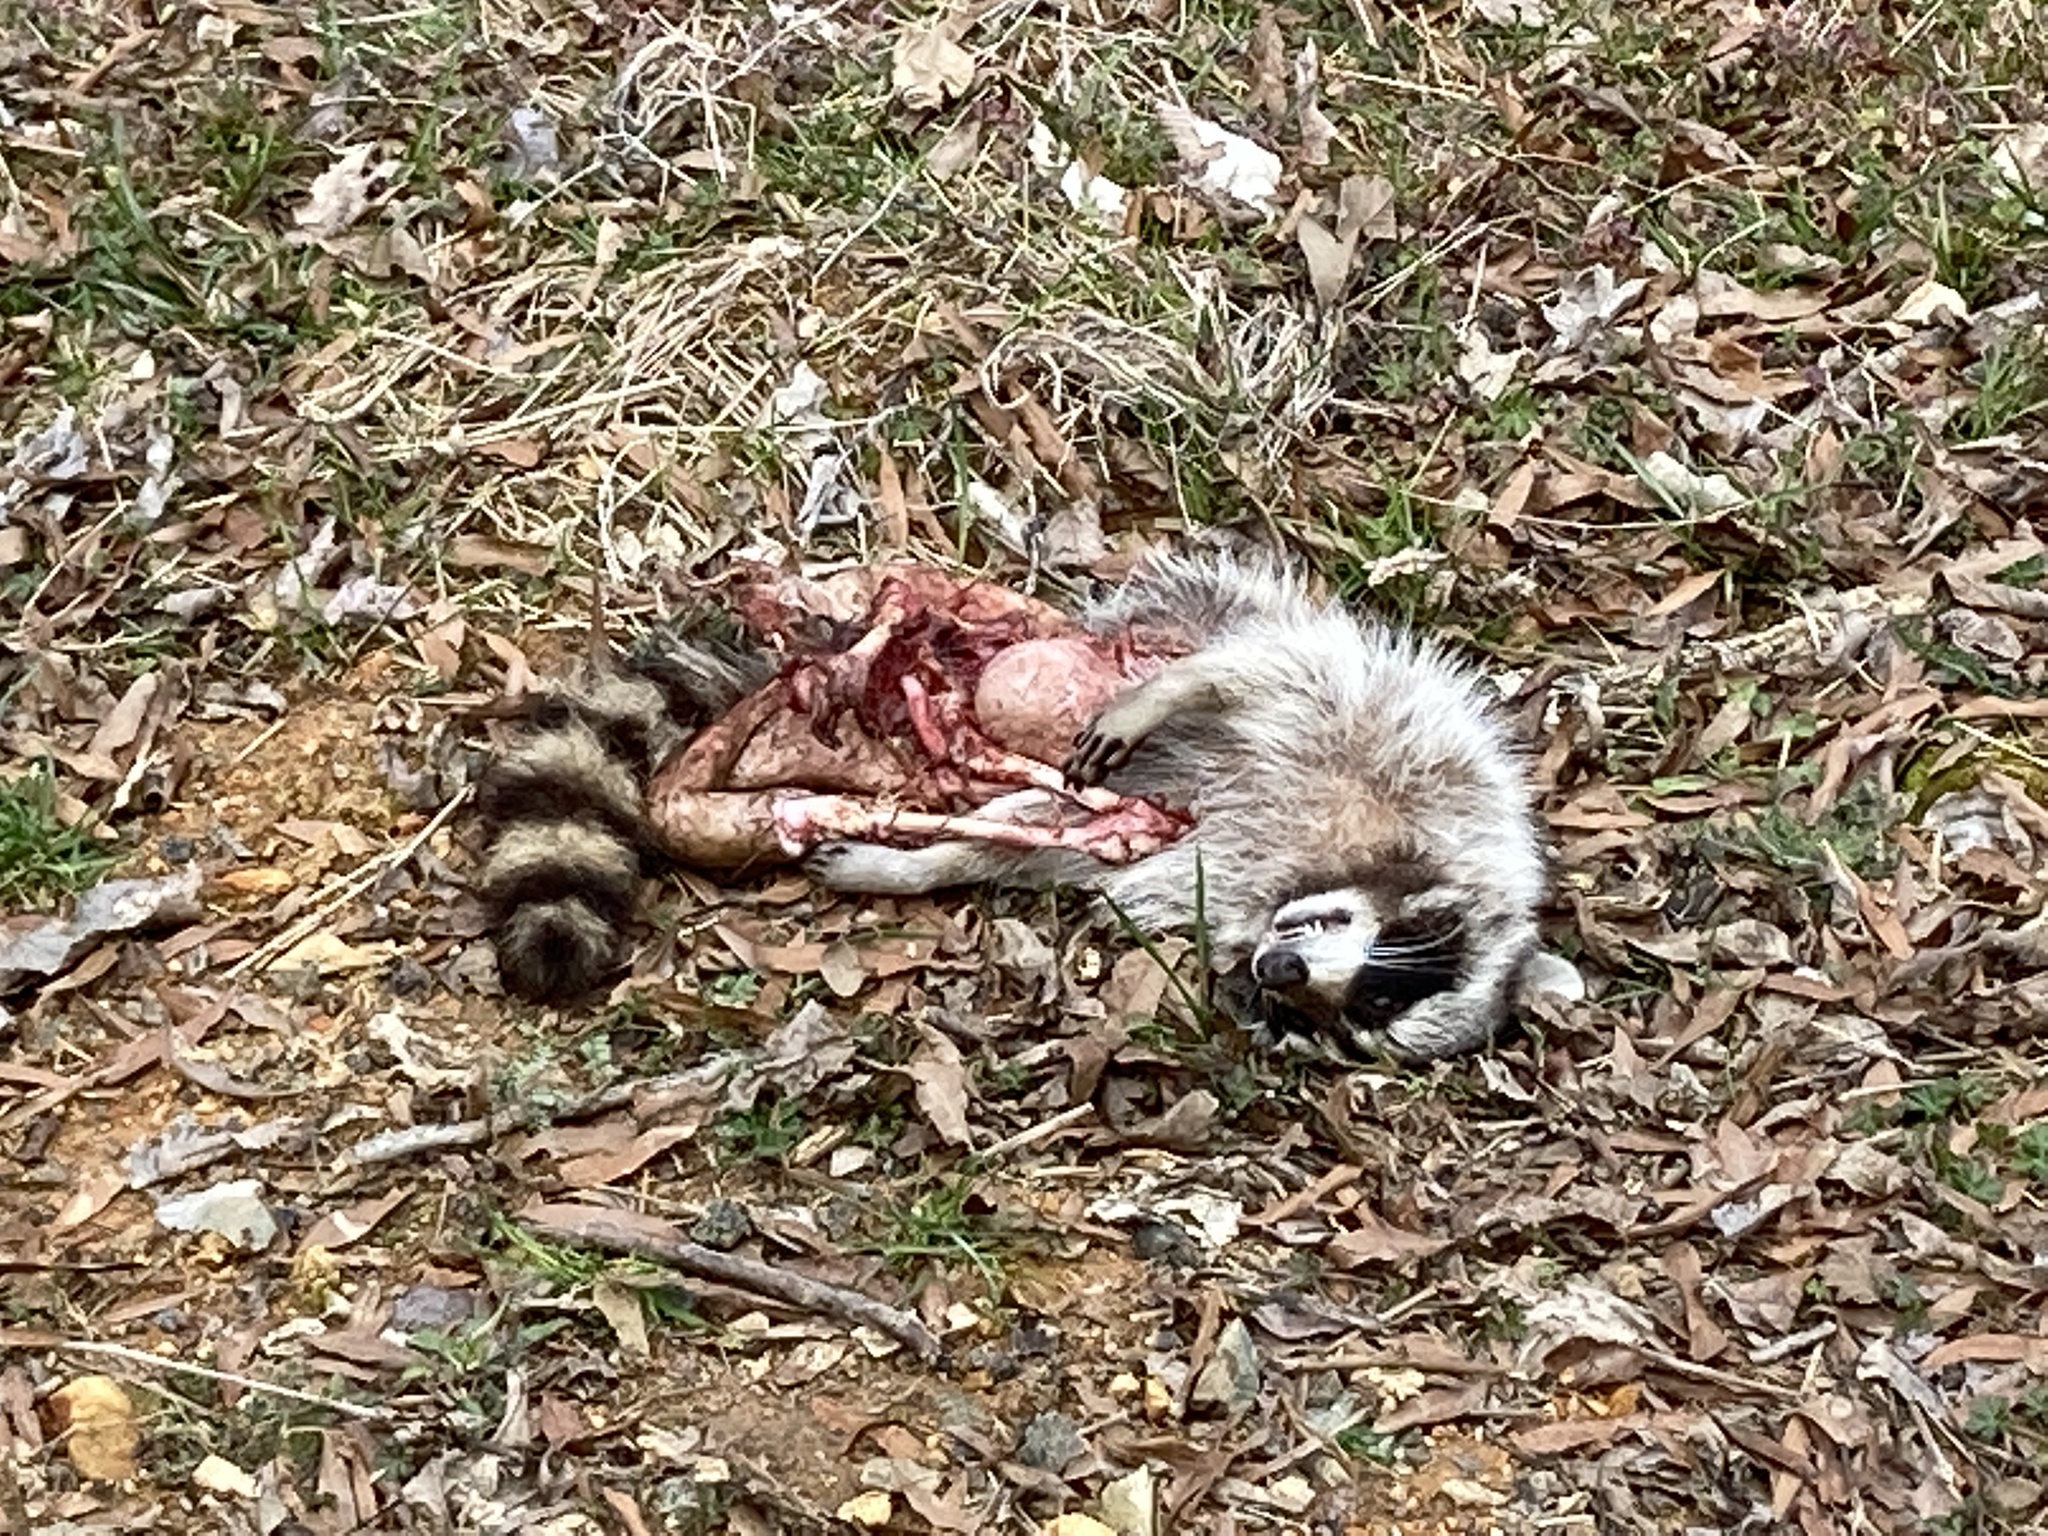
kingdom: Animalia
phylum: Chordata
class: Mammalia
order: Carnivora
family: Procyonidae
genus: Procyon
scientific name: Procyon lotor
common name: Raccoon
